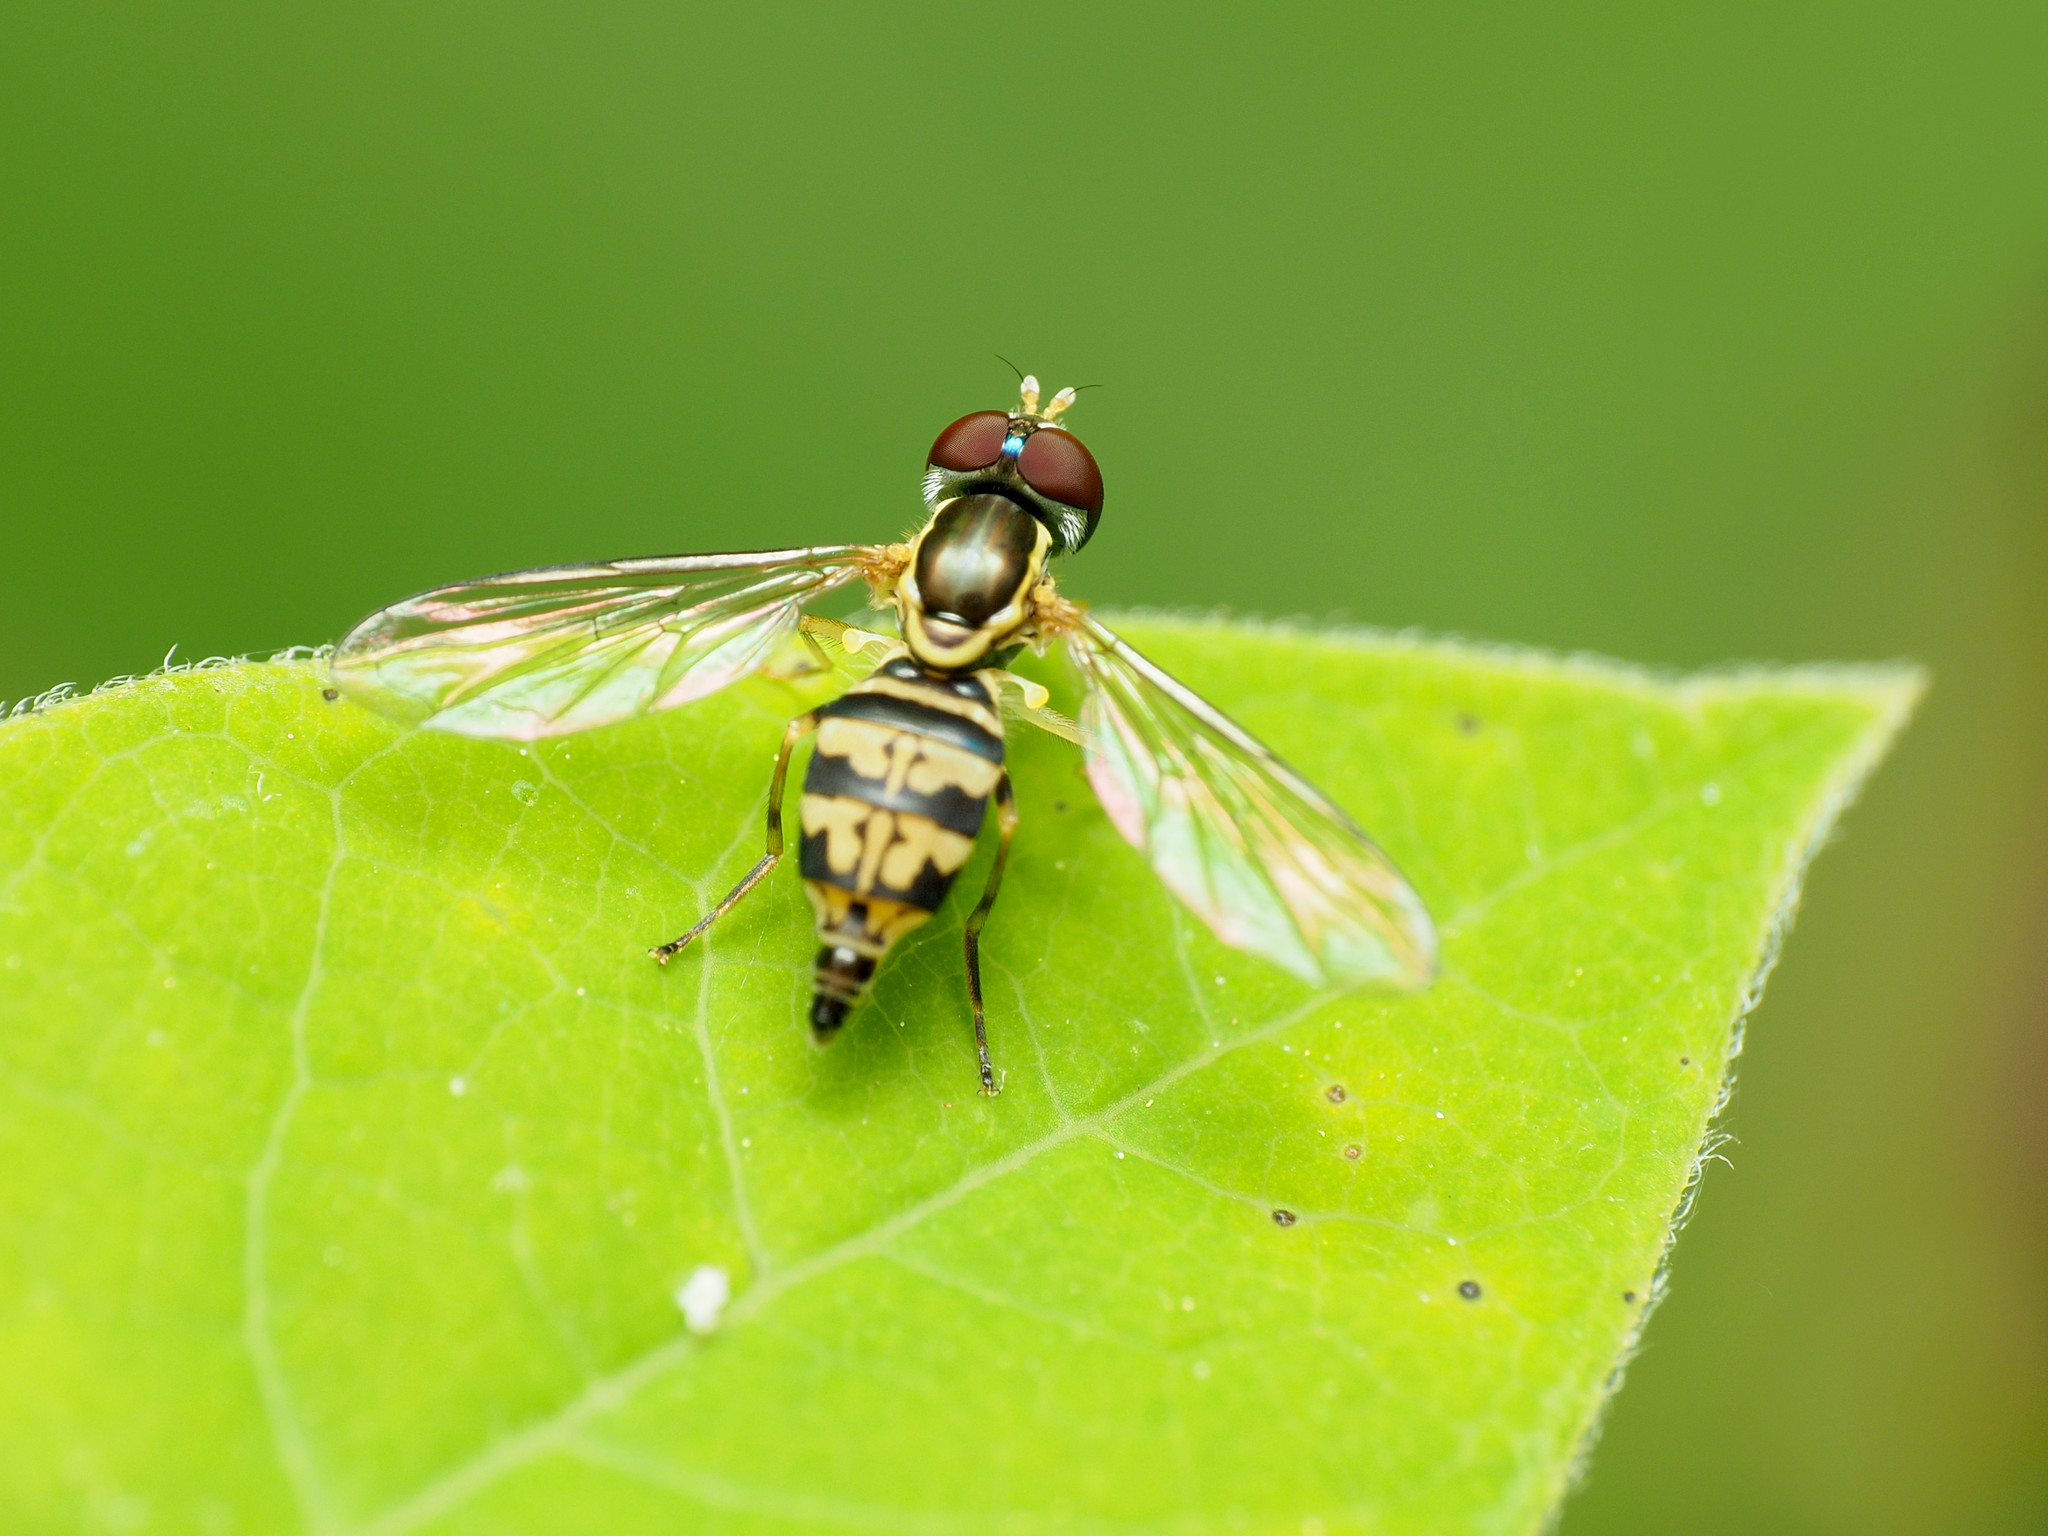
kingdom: Animalia
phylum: Arthropoda
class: Insecta
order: Diptera
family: Syrphidae
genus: Toxomerus
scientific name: Toxomerus geminatus
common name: Eastern calligrapher
